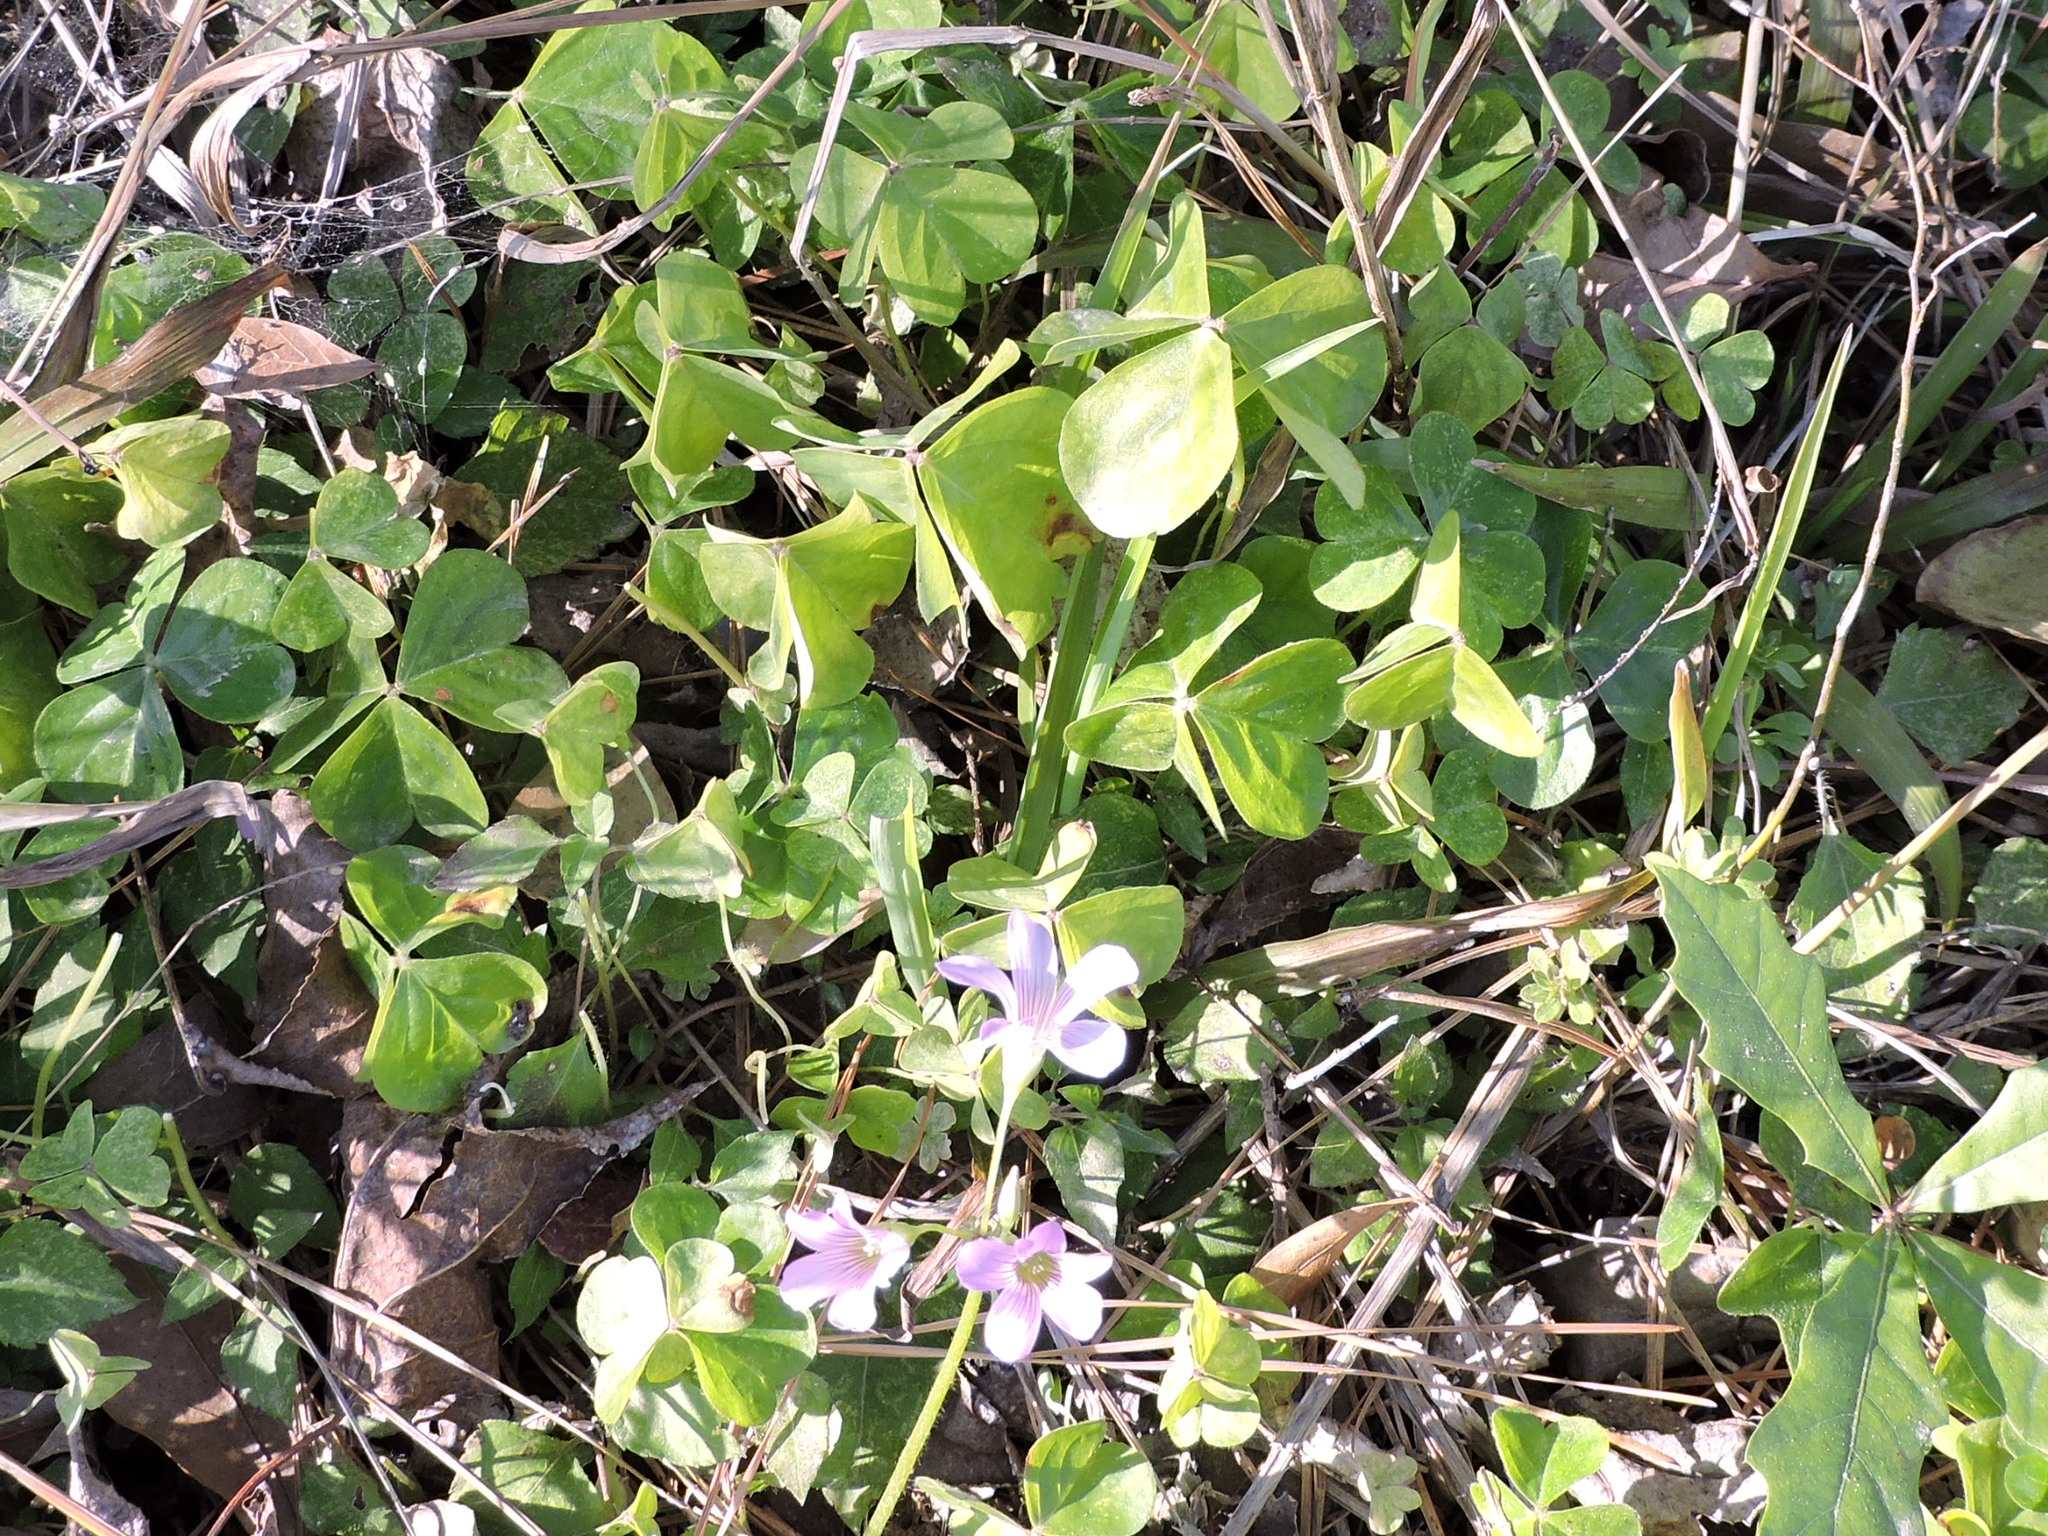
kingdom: Plantae
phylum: Tracheophyta
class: Magnoliopsida
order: Oxalidales
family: Oxalidaceae
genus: Oxalis
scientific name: Oxalis debilis
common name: Large-flowered pink-sorrel
